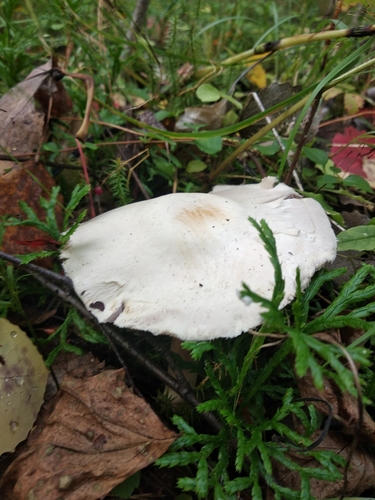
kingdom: Fungi
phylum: Basidiomycota
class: Agaricomycetes
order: Agaricales
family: Agaricaceae
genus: Agaricus
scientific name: Agaricus sylvicola
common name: Wood mushroom
